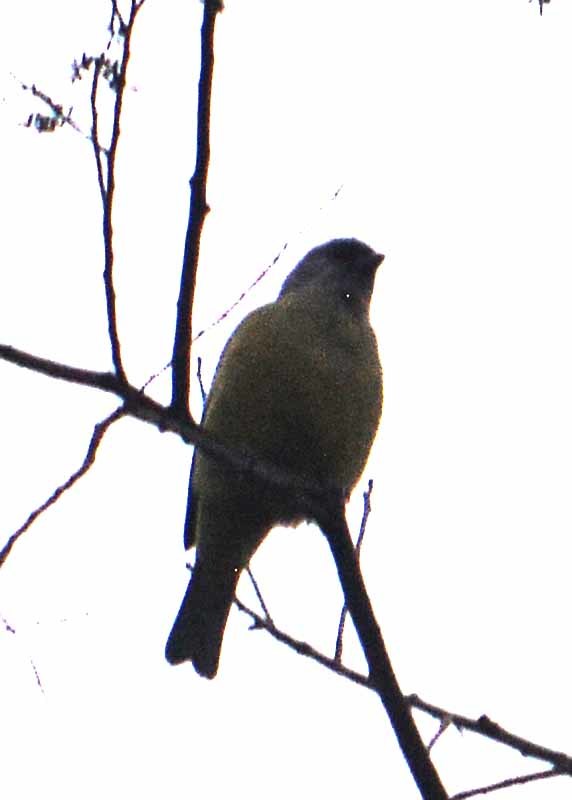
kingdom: Animalia
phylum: Chordata
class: Aves
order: Passeriformes
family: Thraupidae
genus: Thraupis
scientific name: Thraupis abbas
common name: Yellow-winged tanager
